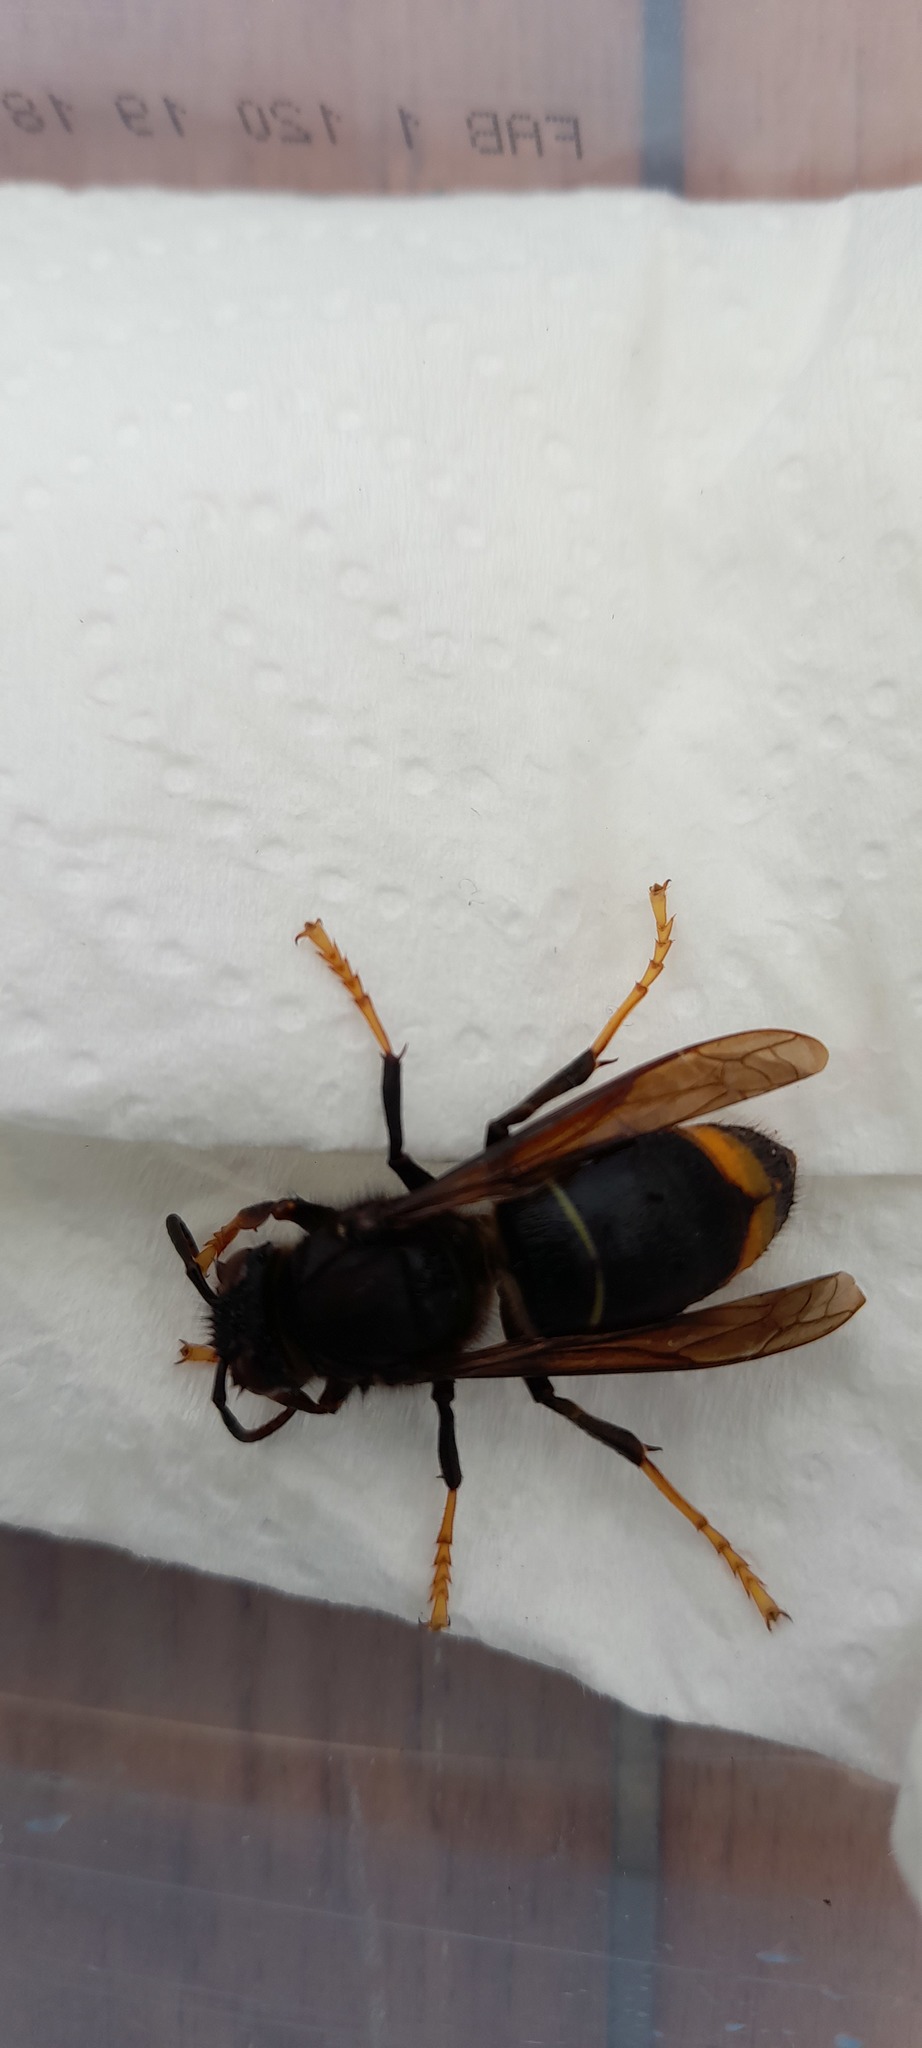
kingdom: Animalia
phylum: Arthropoda
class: Insecta
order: Hymenoptera
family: Vespidae
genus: Vespa
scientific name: Vespa velutina
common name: Asian hornet
